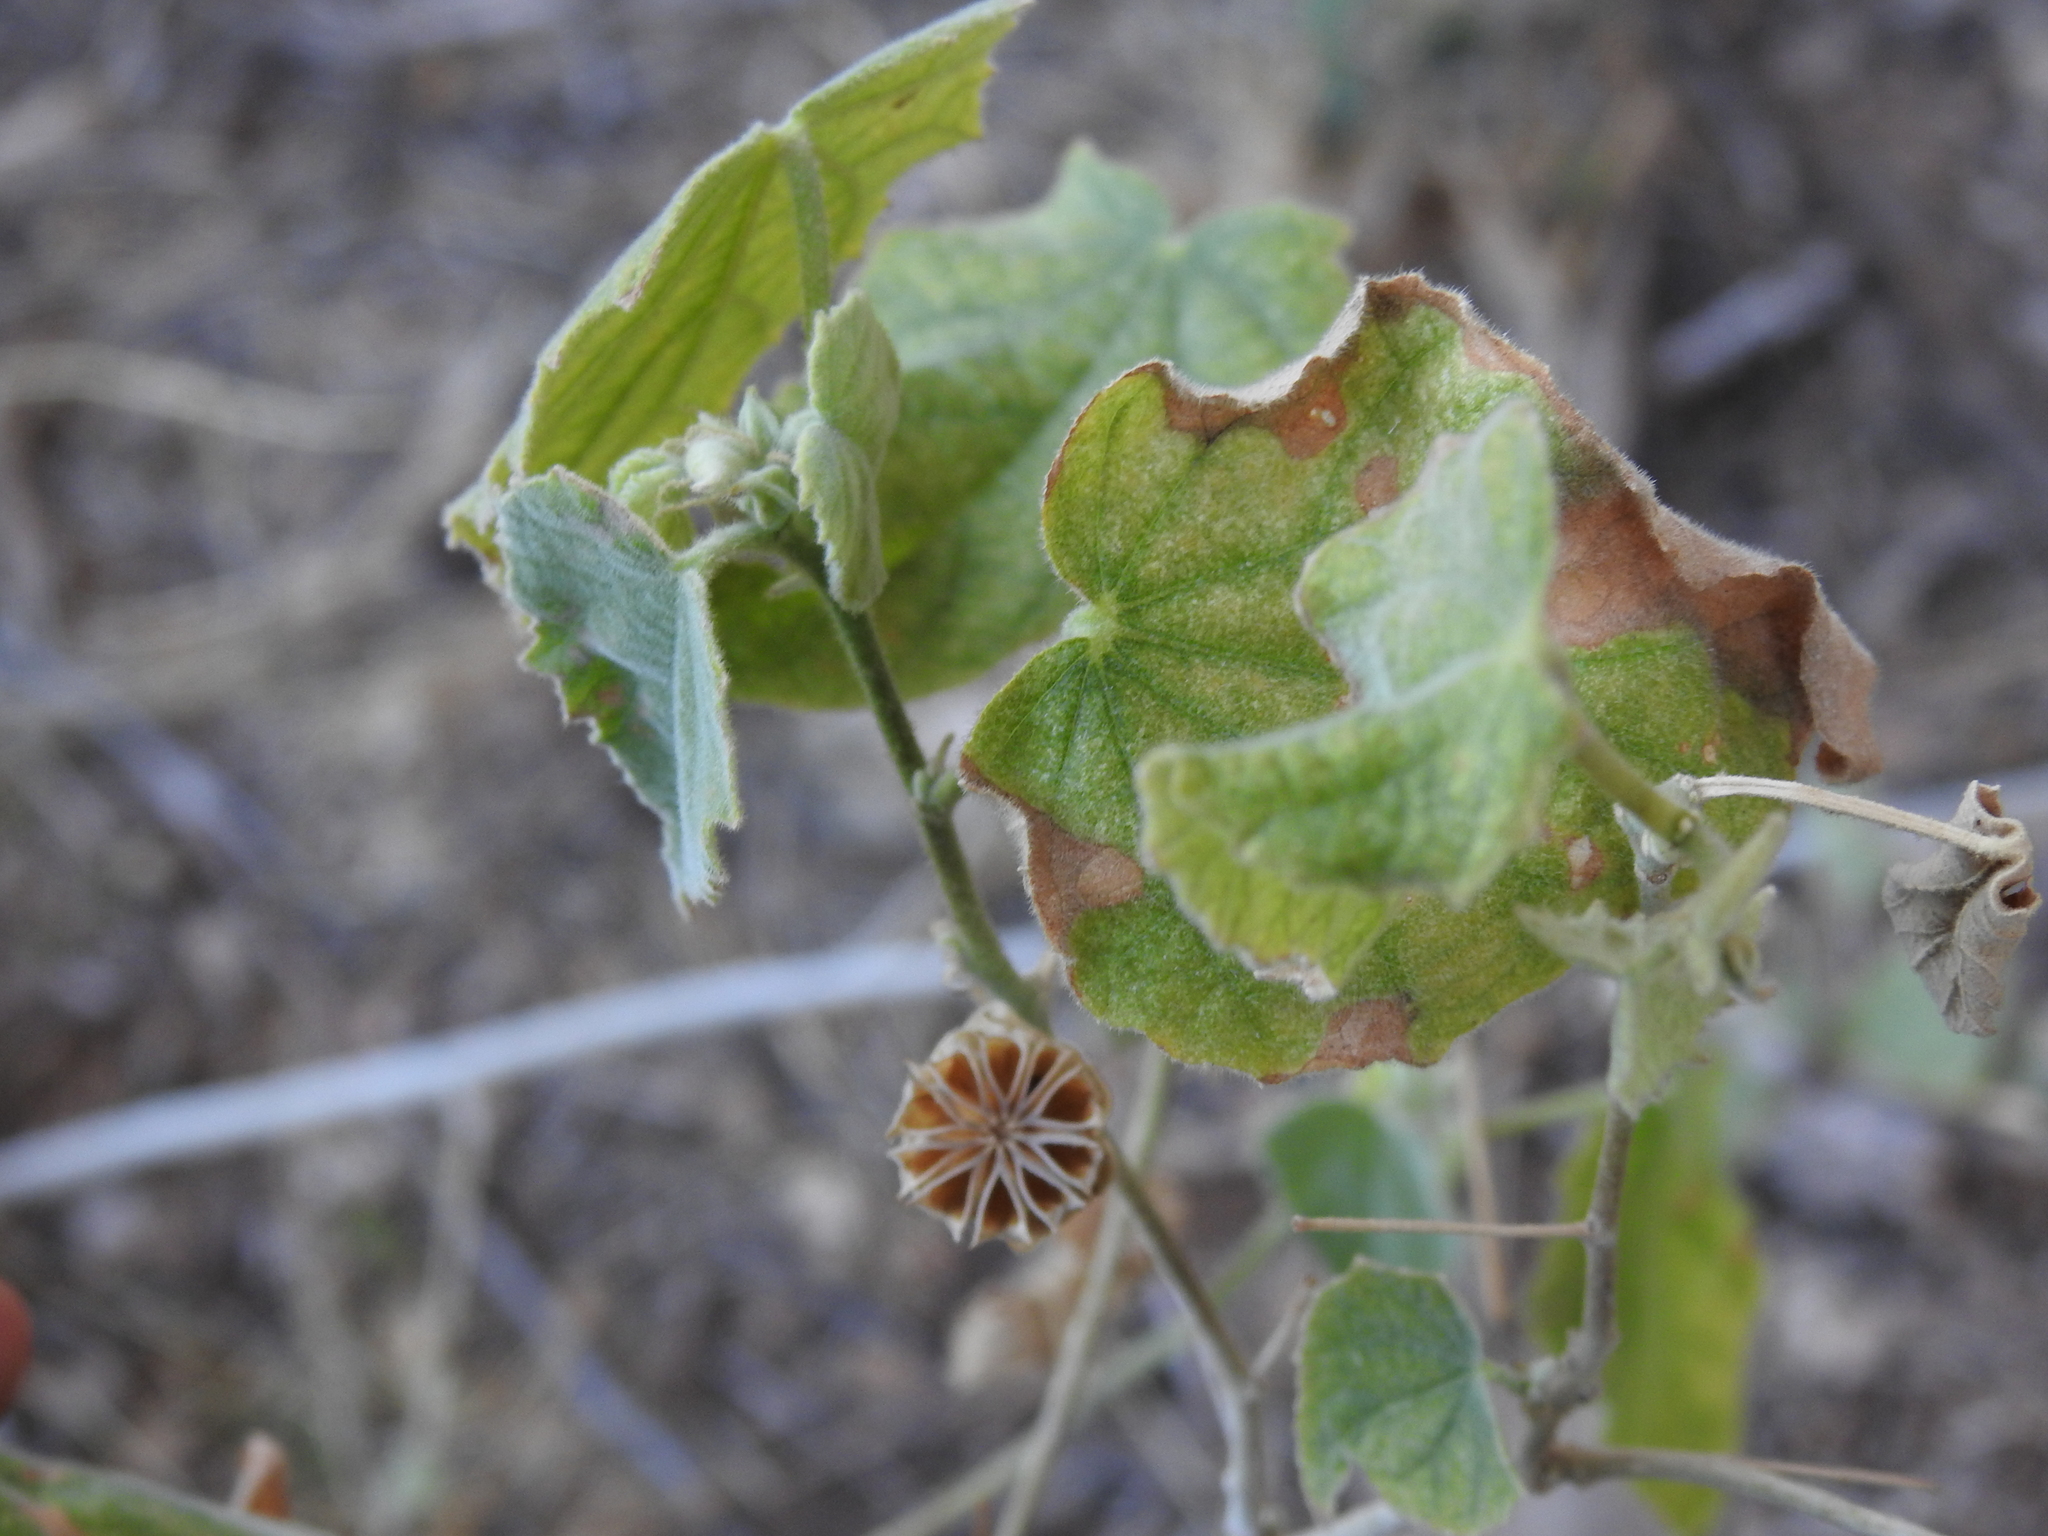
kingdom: Plantae
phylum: Tracheophyta
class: Magnoliopsida
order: Malvales
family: Malvaceae
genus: Abutilon
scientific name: Abutilon abutiloides
